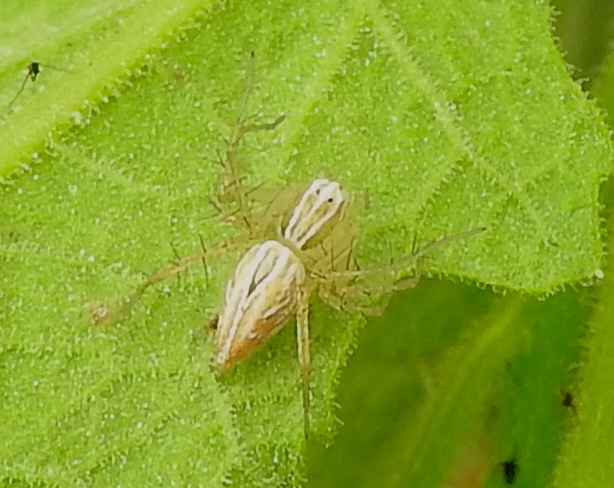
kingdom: Animalia
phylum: Arthropoda
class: Arachnida
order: Araneae
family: Oxyopidae
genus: Oxyopes
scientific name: Oxyopes
